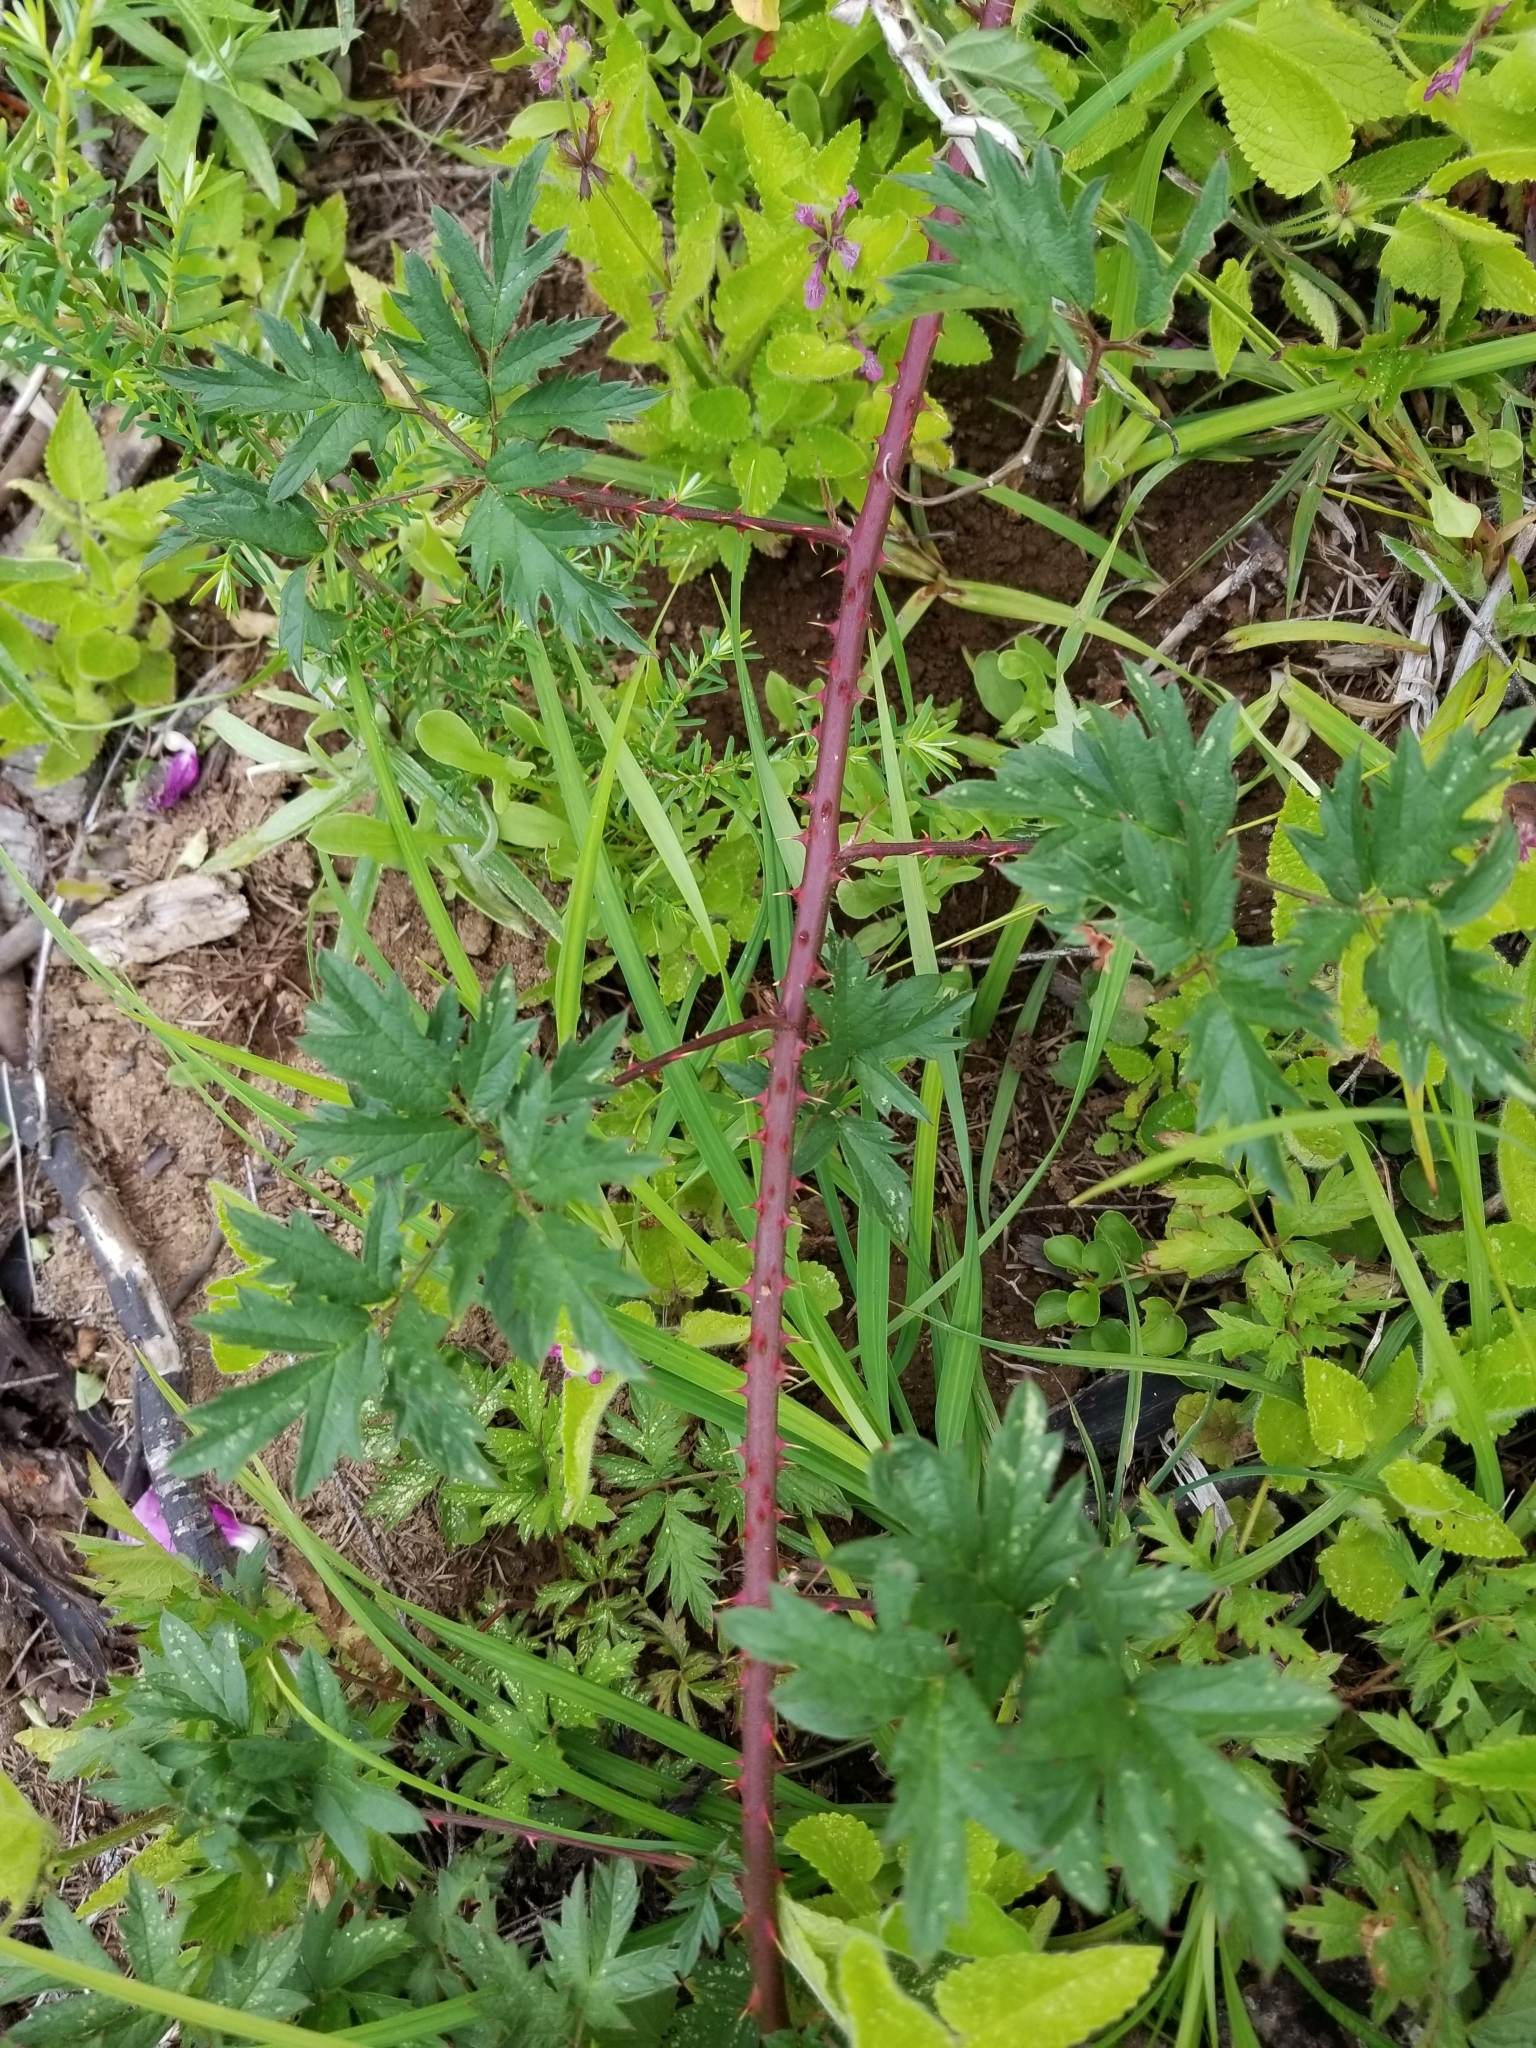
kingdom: Plantae
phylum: Tracheophyta
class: Magnoliopsida
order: Rosales
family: Rosaceae
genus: Rubus
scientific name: Rubus laciniatus
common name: Evergreen blackberry
